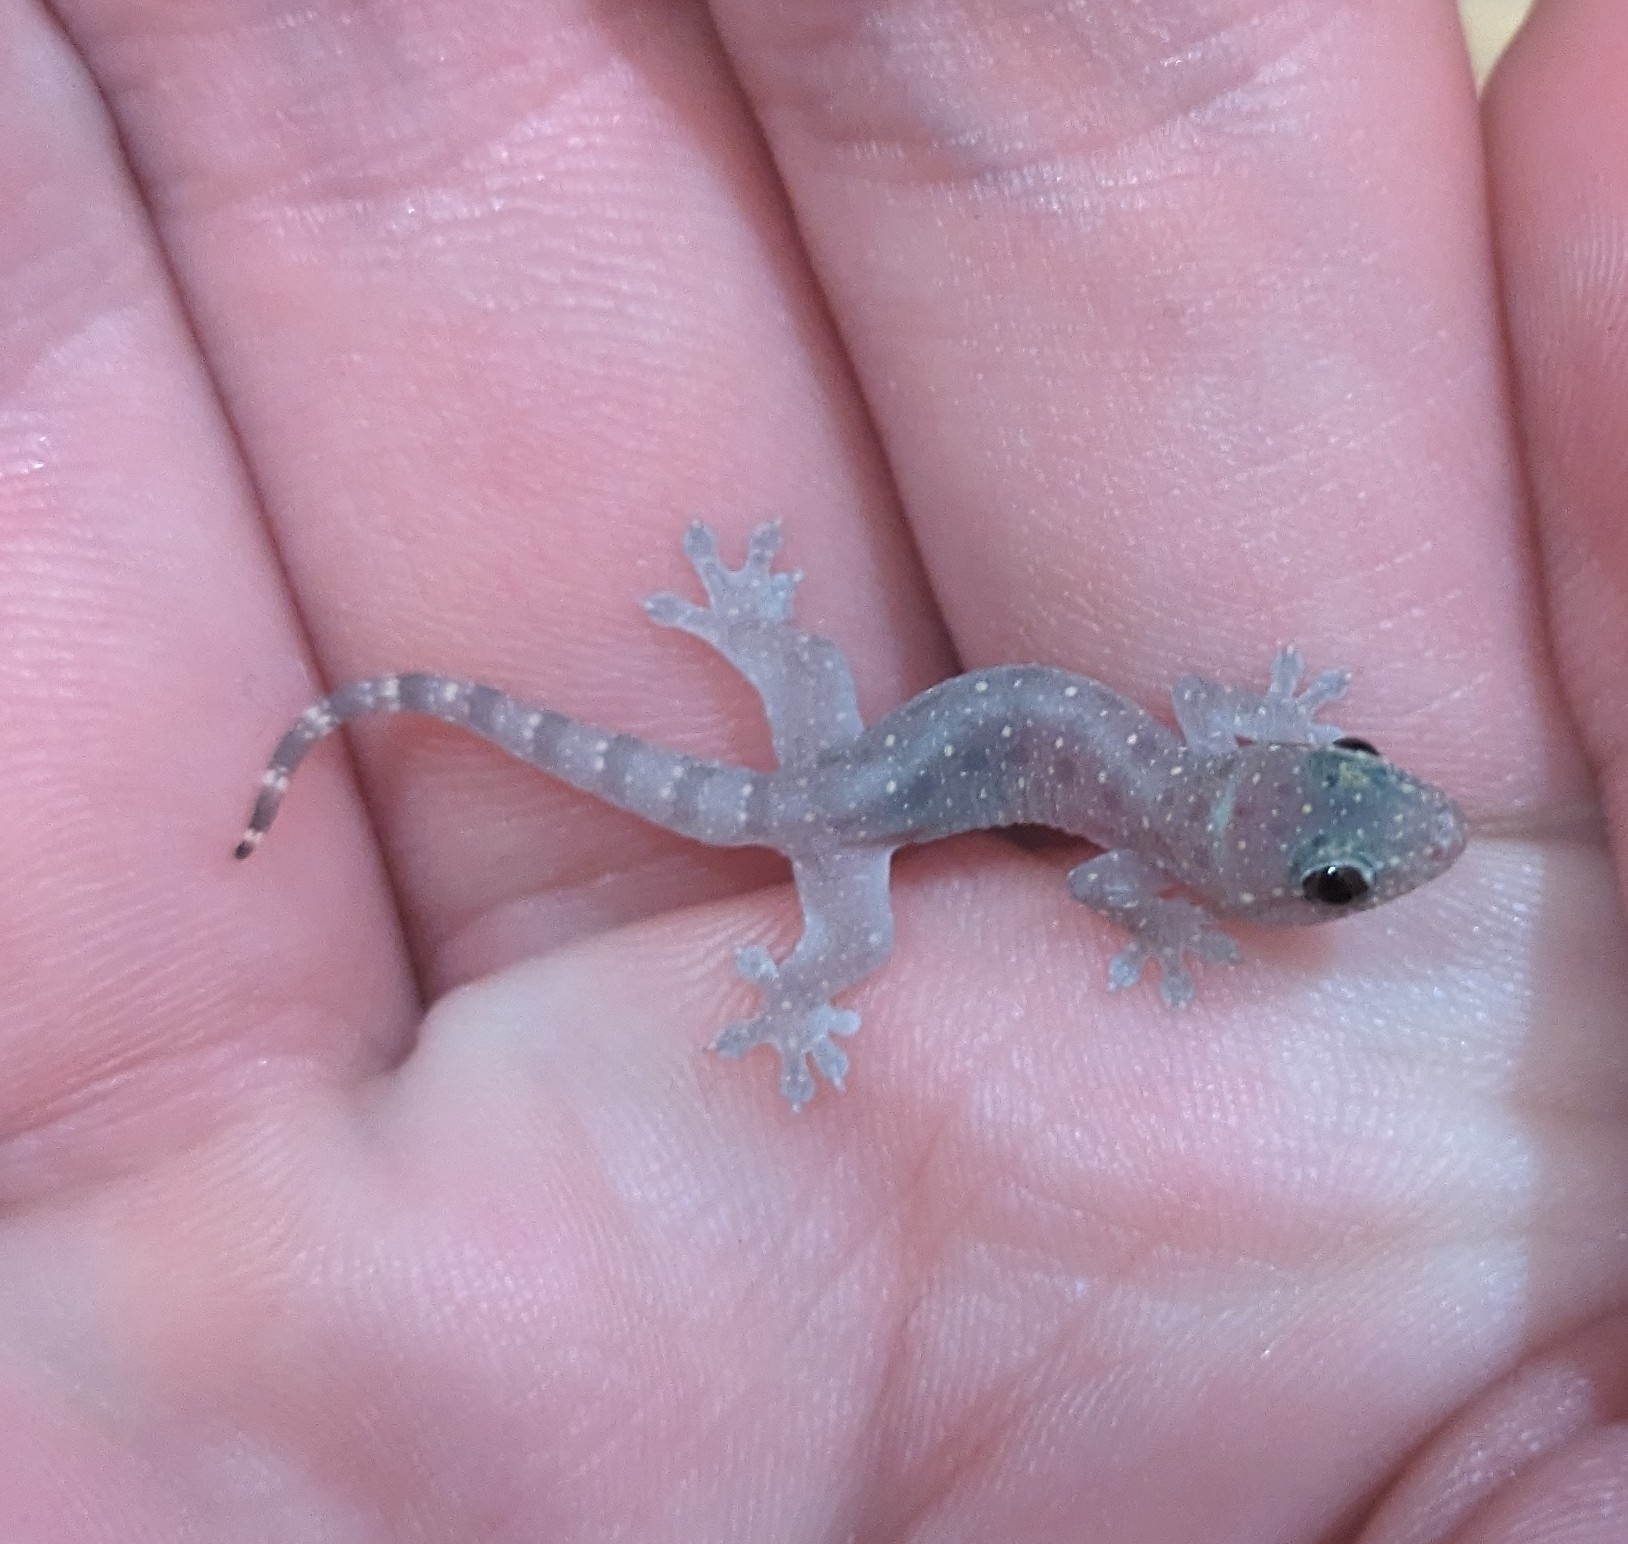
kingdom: Animalia
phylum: Chordata
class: Squamata
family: Gekkonidae
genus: Gehyra
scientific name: Gehyra mutilata
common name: Stump-toed gecko
